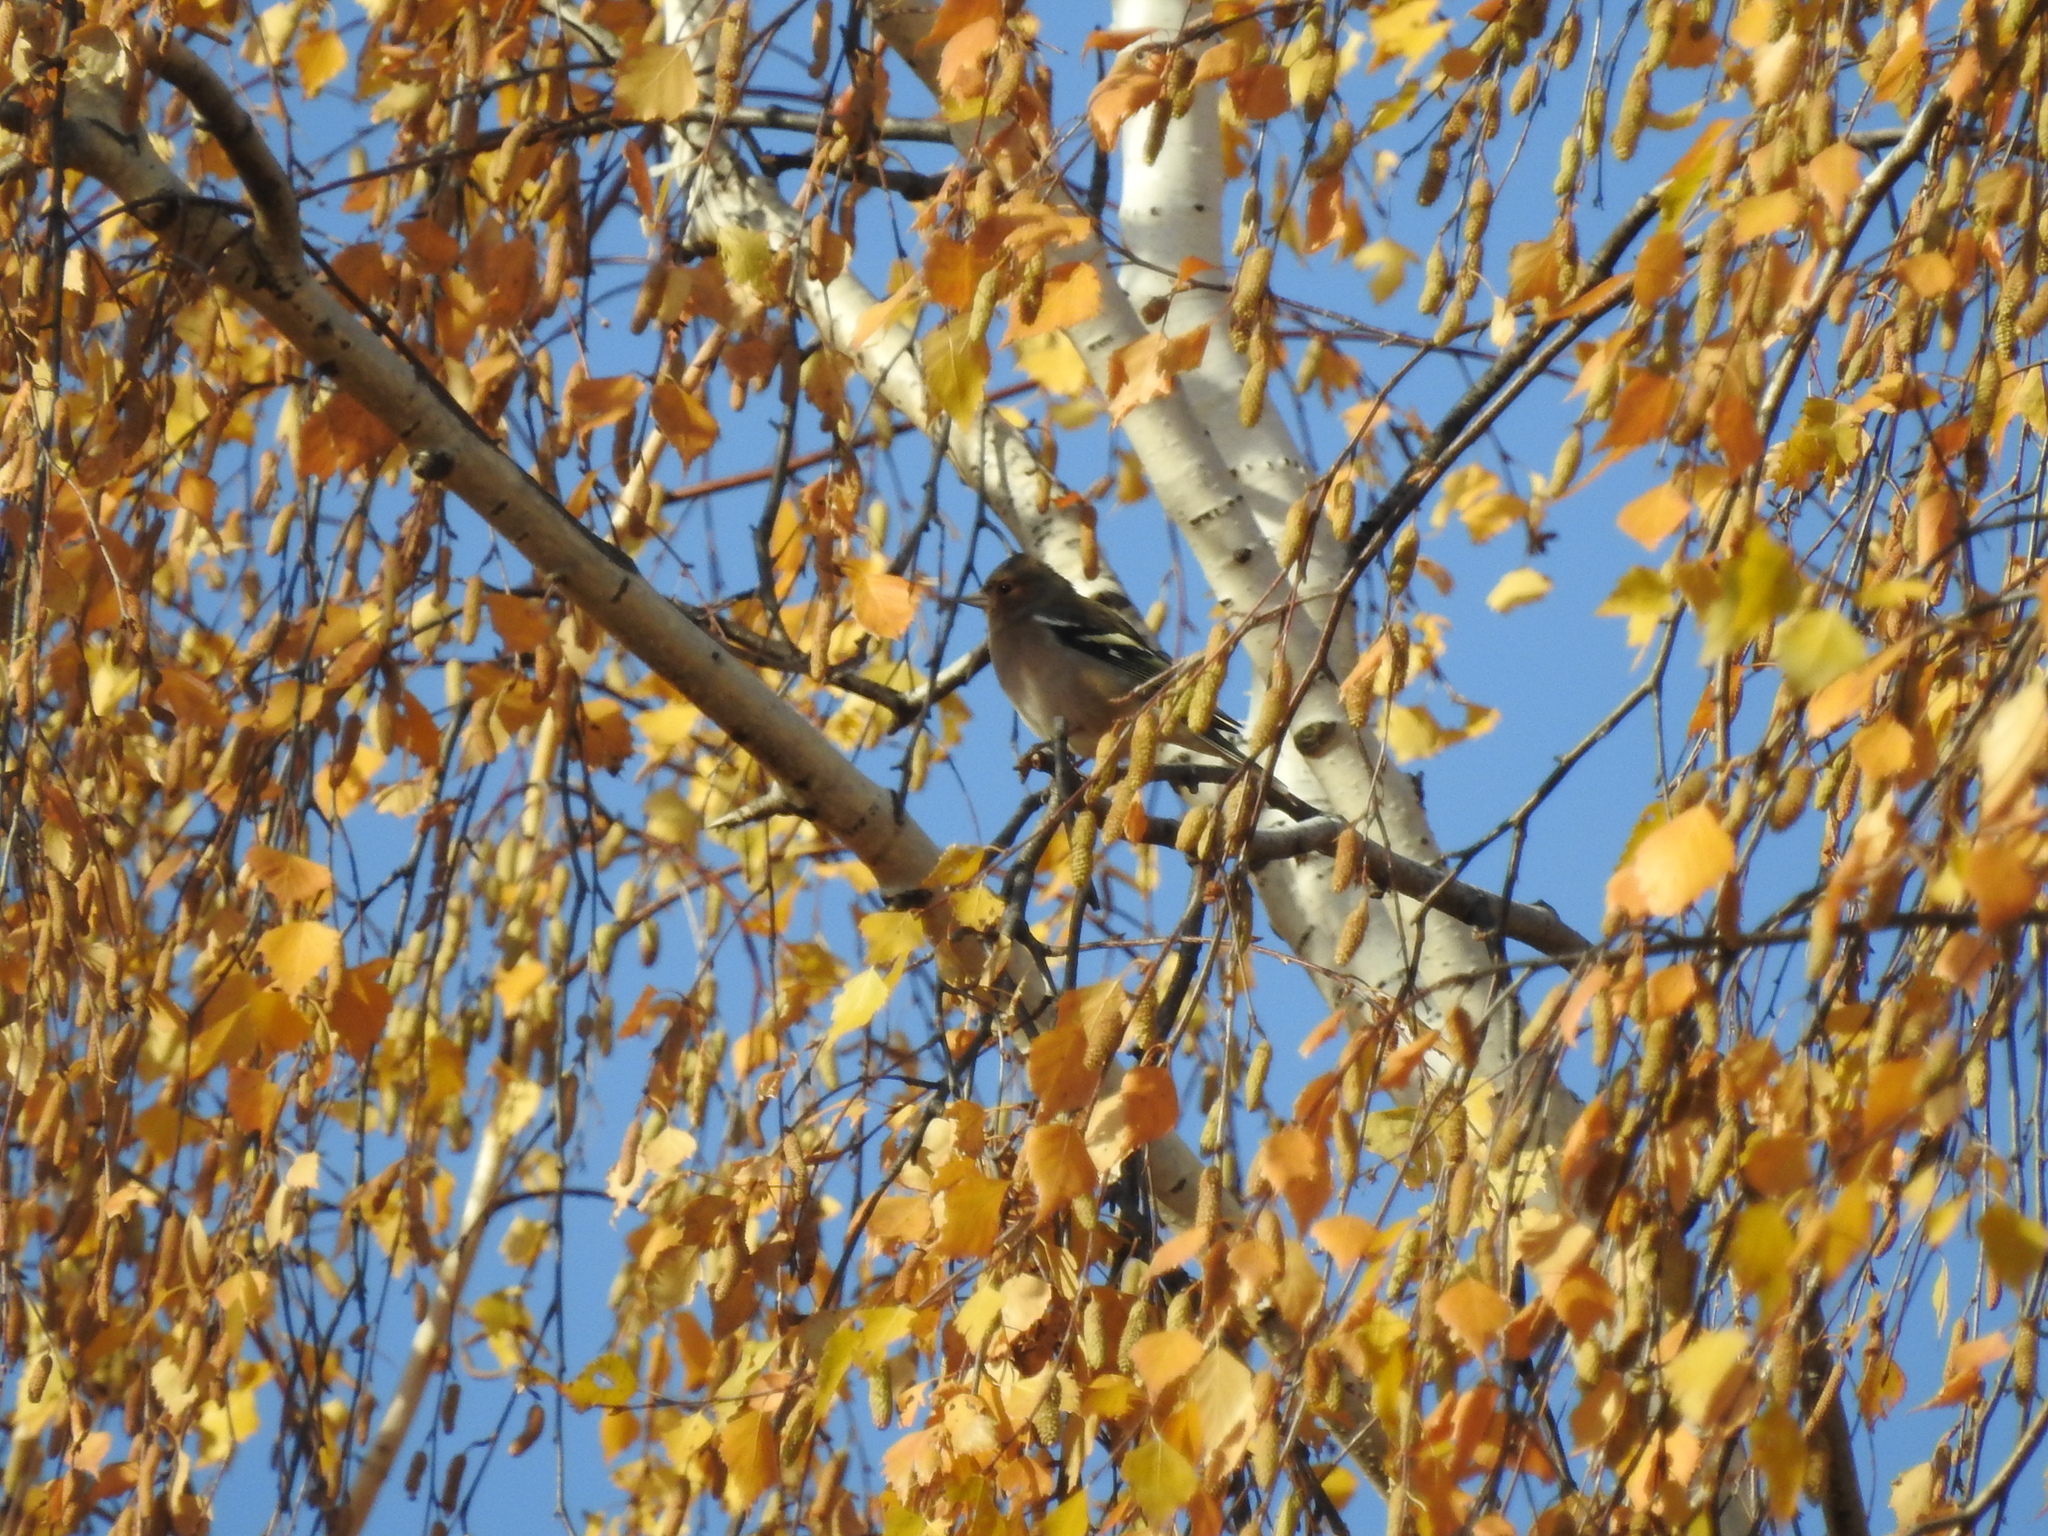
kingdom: Animalia
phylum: Chordata
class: Aves
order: Passeriformes
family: Fringillidae
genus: Fringilla
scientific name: Fringilla coelebs
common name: Common chaffinch
